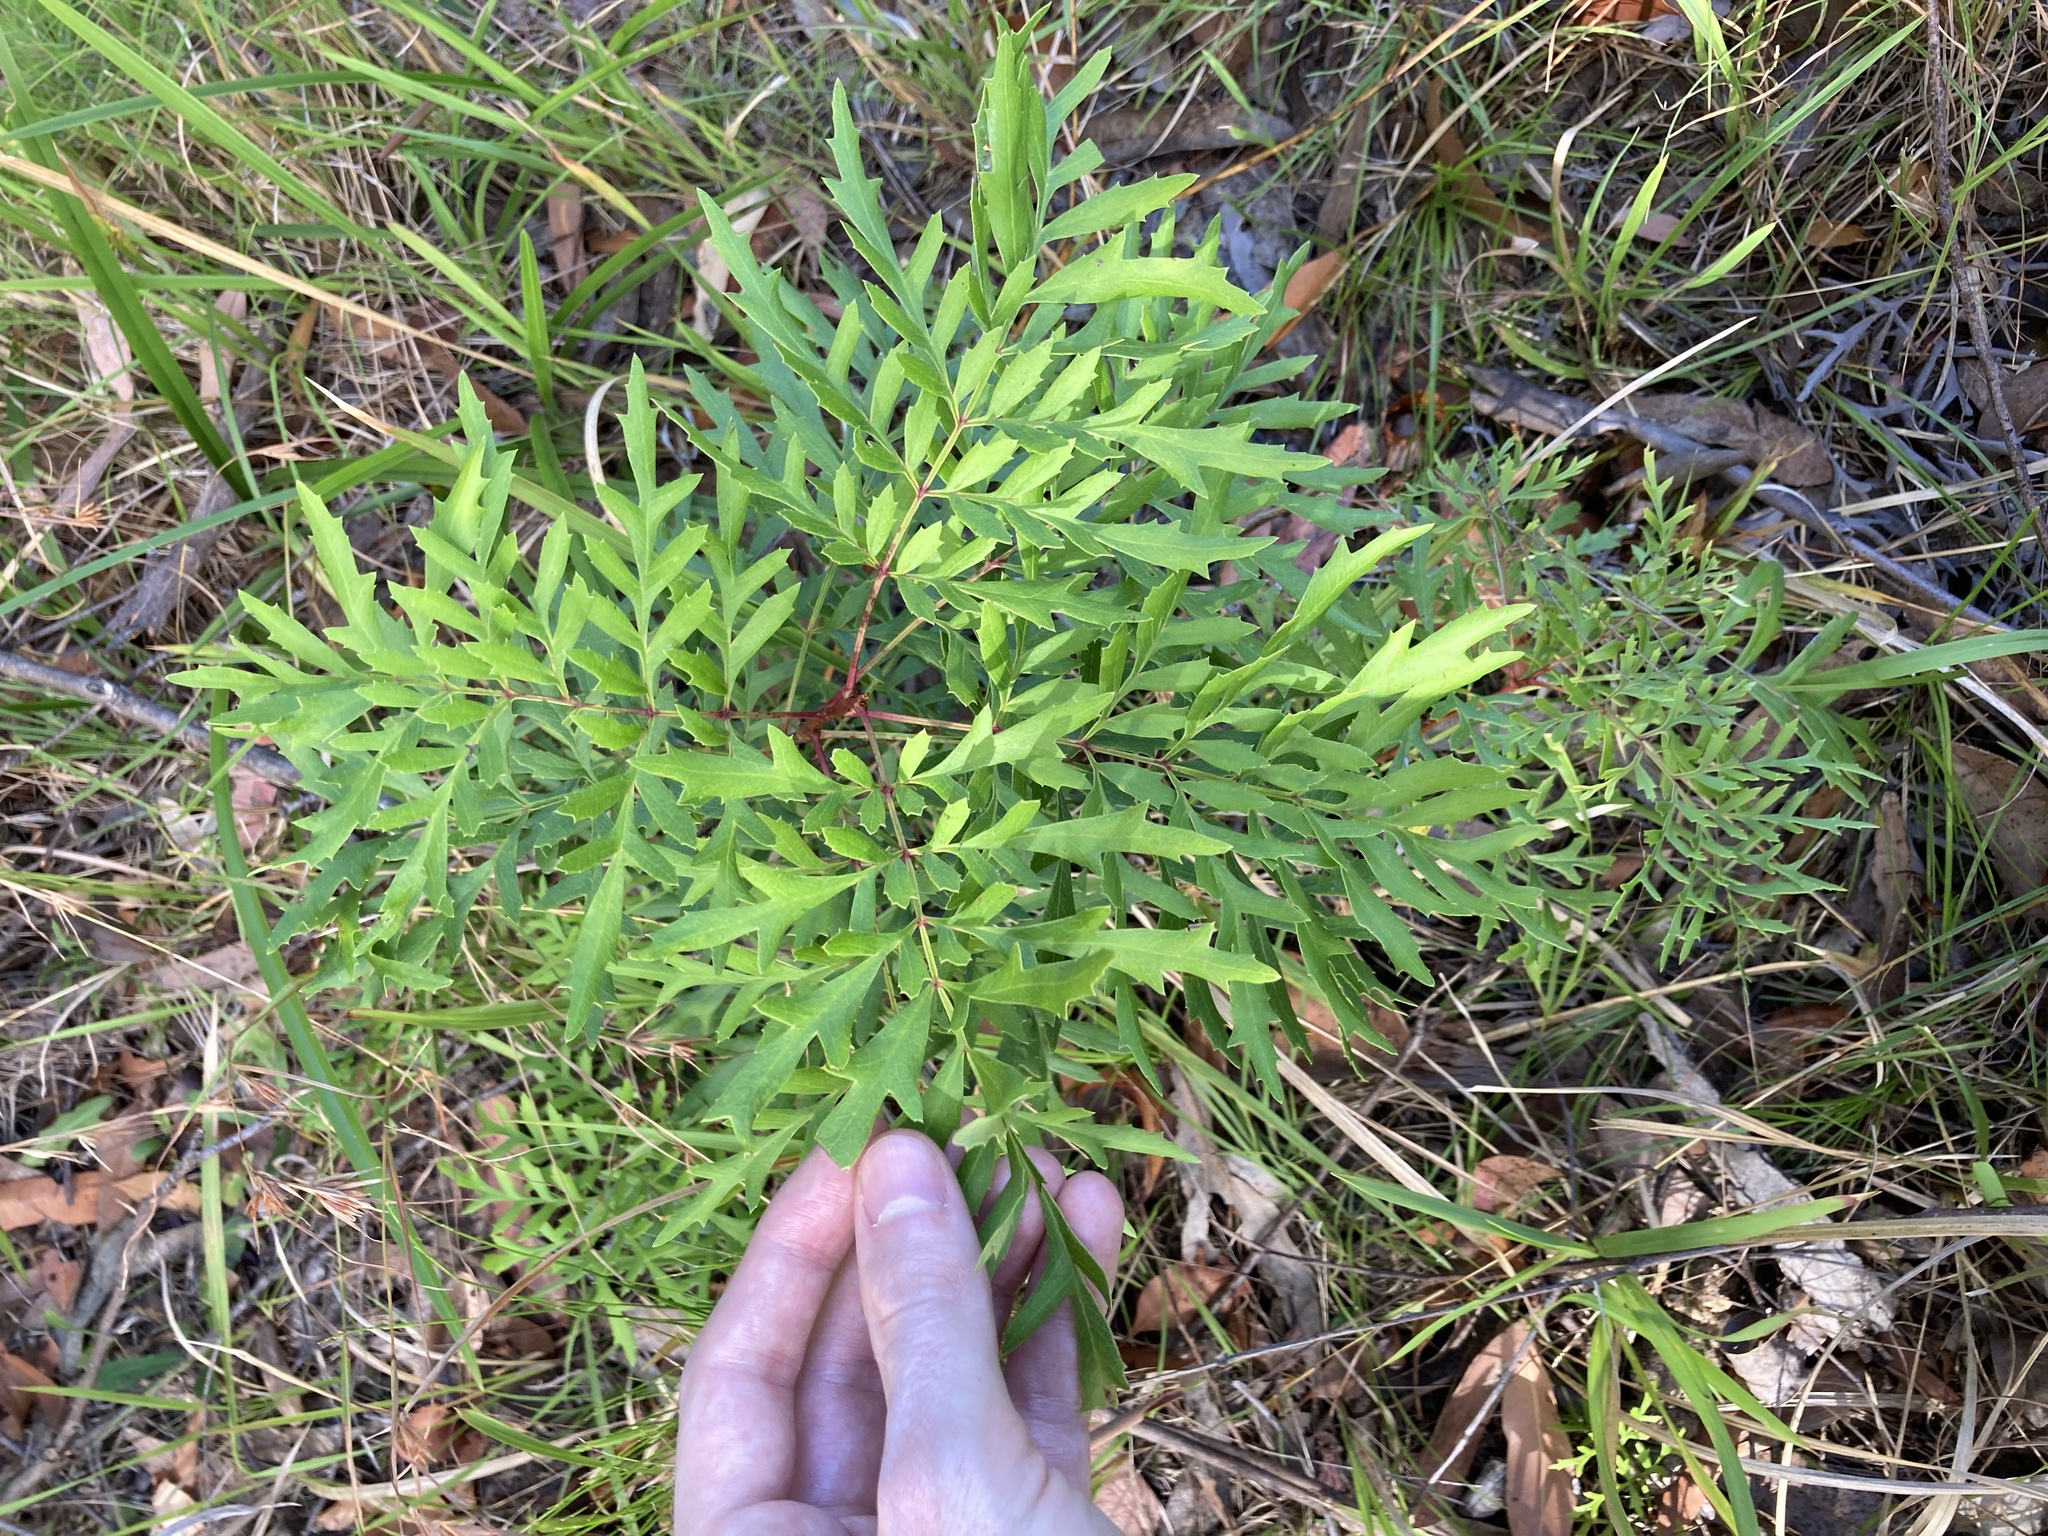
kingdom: Plantae
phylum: Tracheophyta
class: Magnoliopsida
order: Proteales
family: Proteaceae
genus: Lomatia
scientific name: Lomatia silaifolia
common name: Crinklebush
